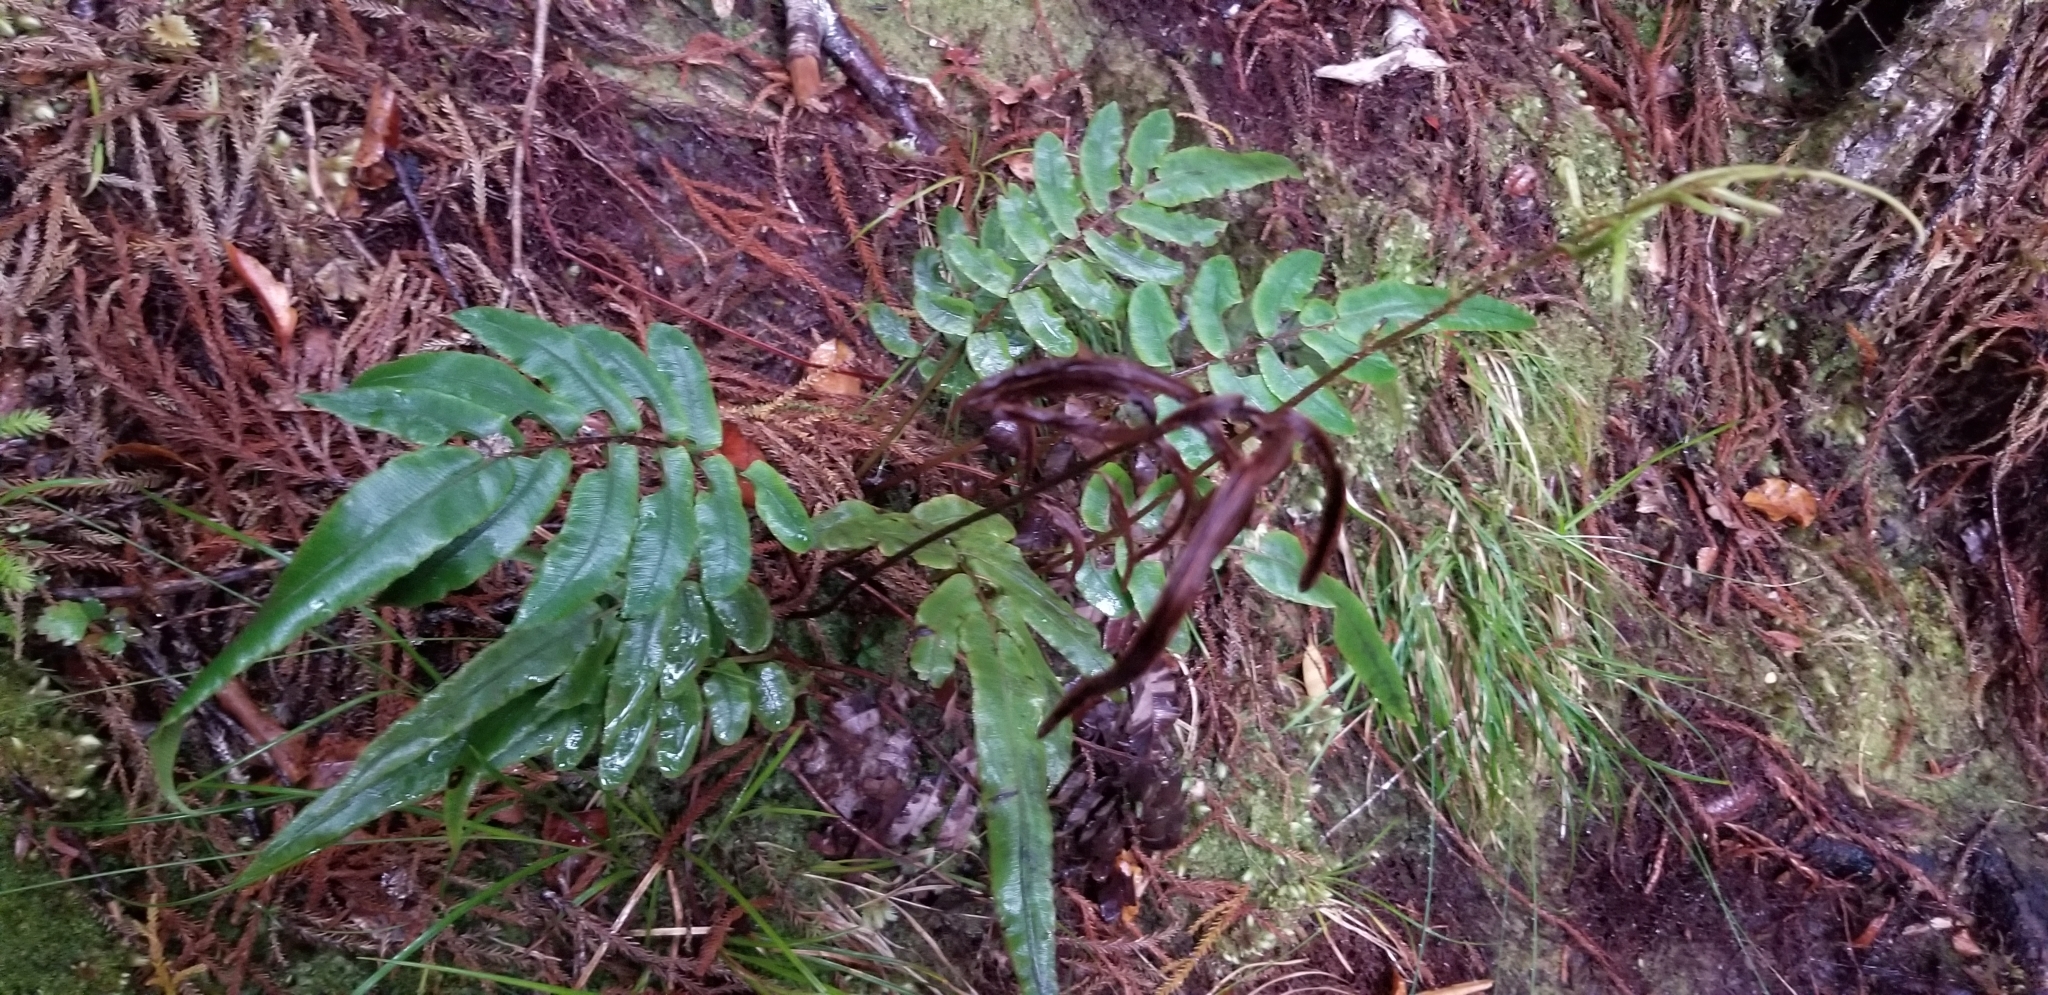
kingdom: Plantae
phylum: Tracheophyta
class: Polypodiopsida
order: Polypodiales
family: Blechnaceae
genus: Parablechnum
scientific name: Parablechnum procerum
